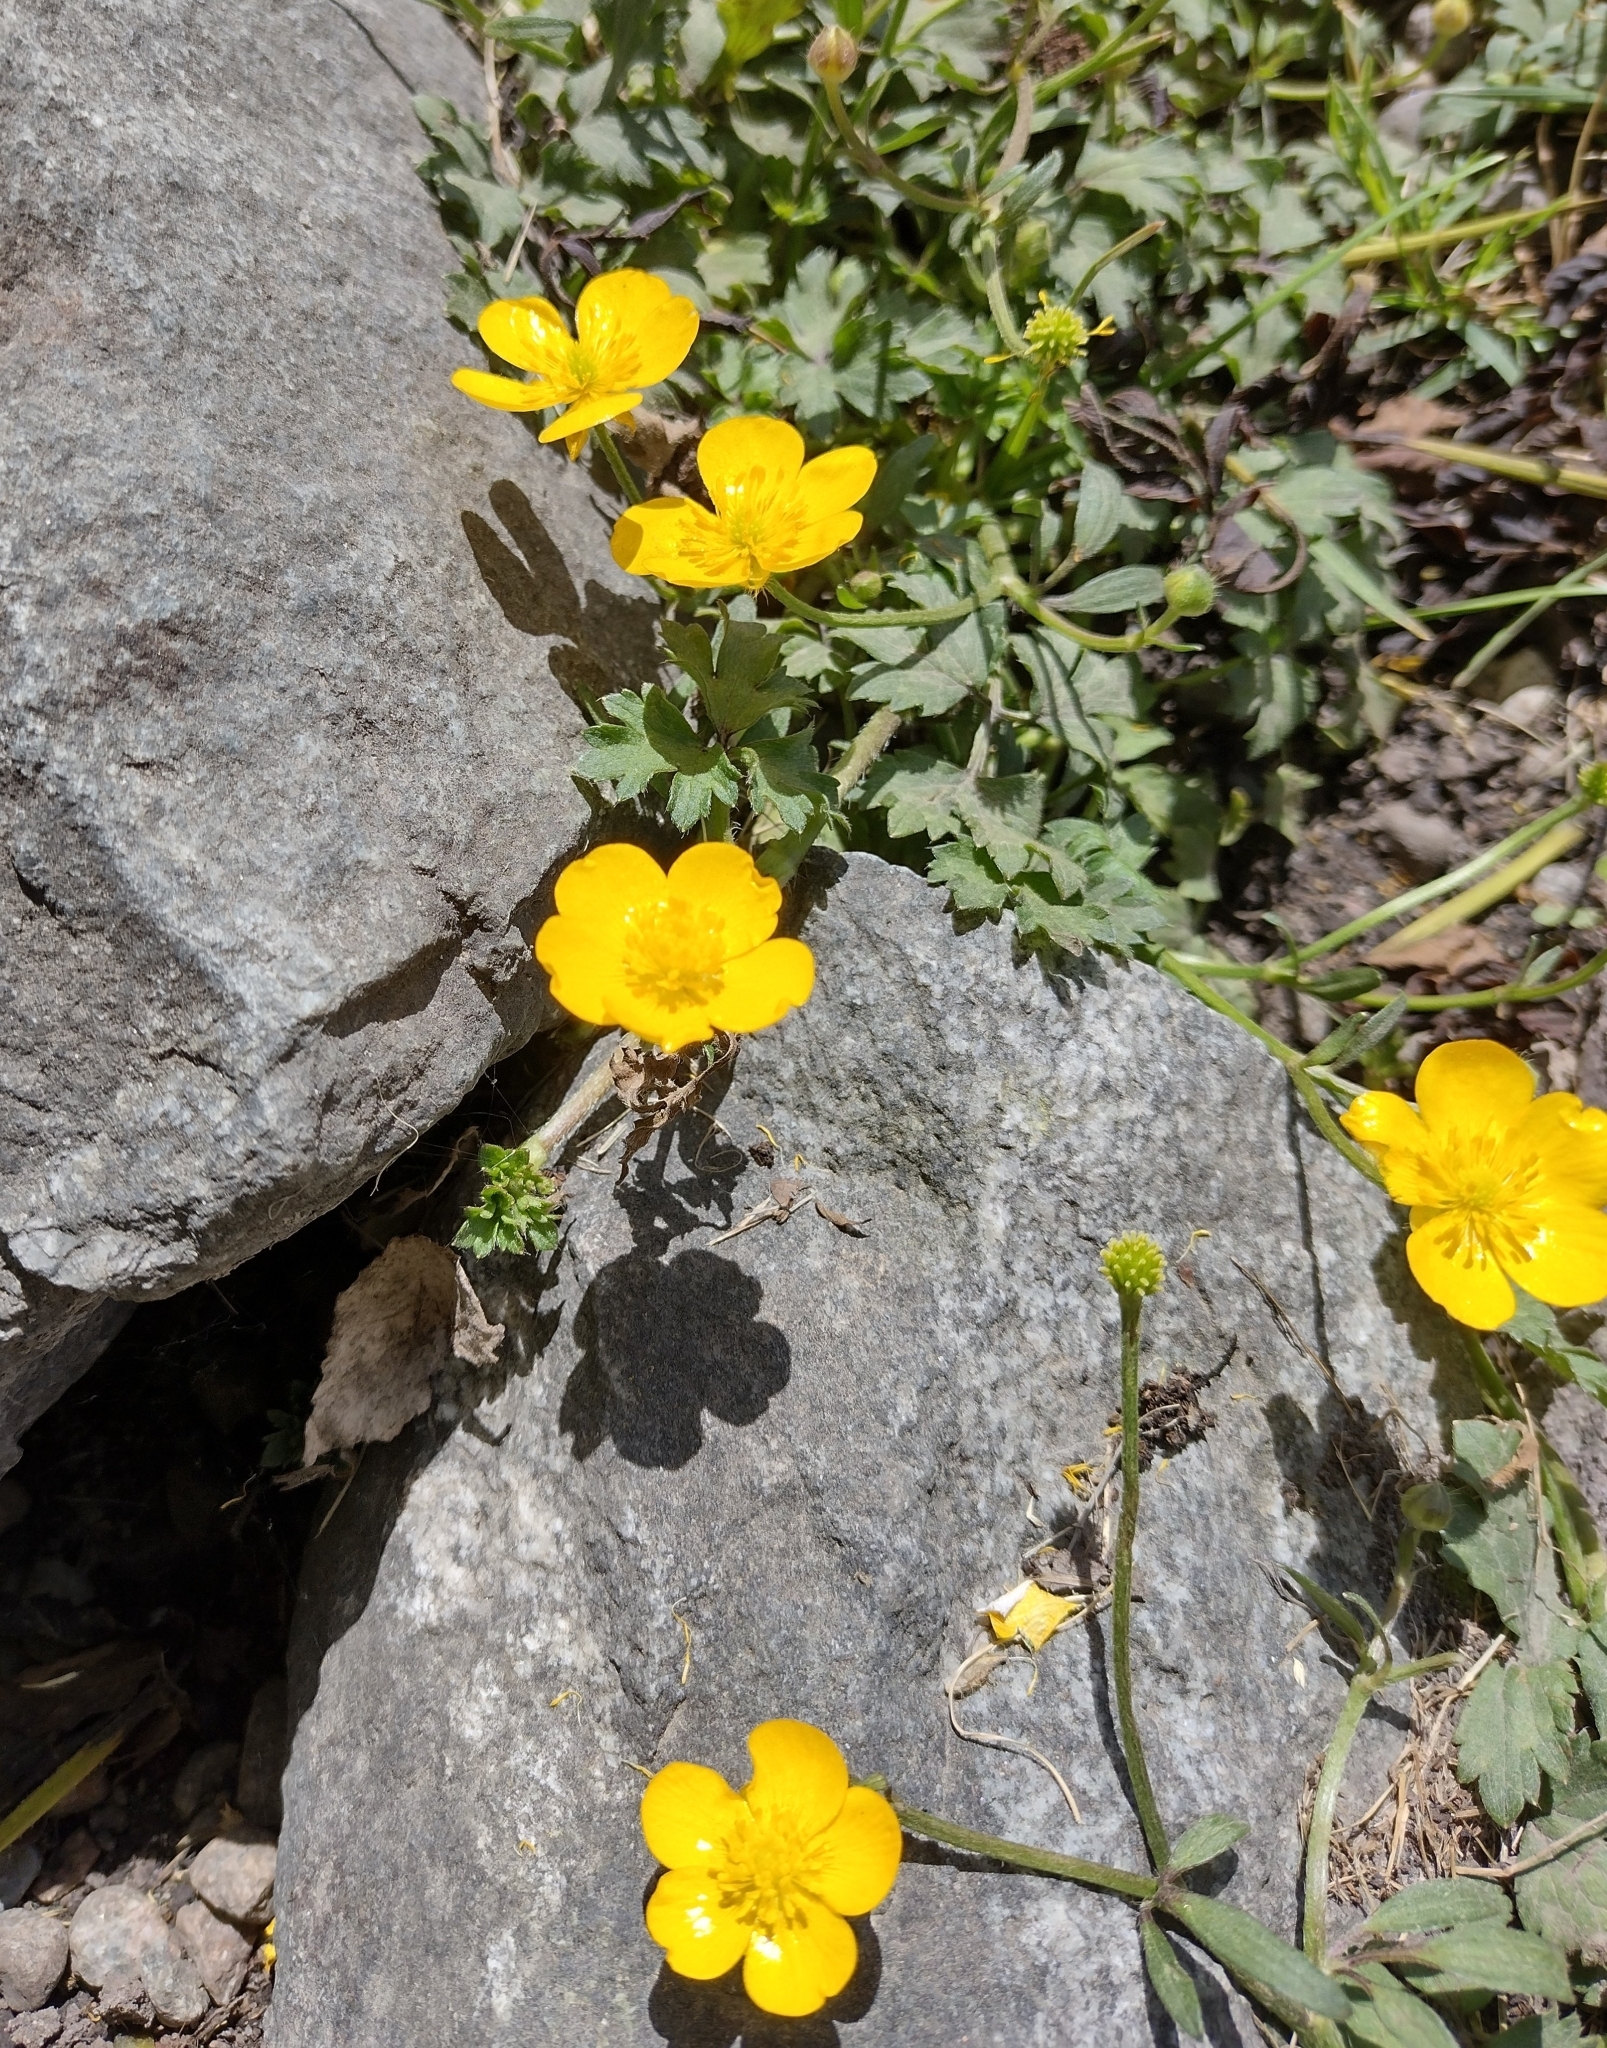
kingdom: Plantae
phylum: Tracheophyta
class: Magnoliopsida
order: Ranunculales
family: Ranunculaceae
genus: Ranunculus
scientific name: Ranunculus repens
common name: Creeping buttercup
